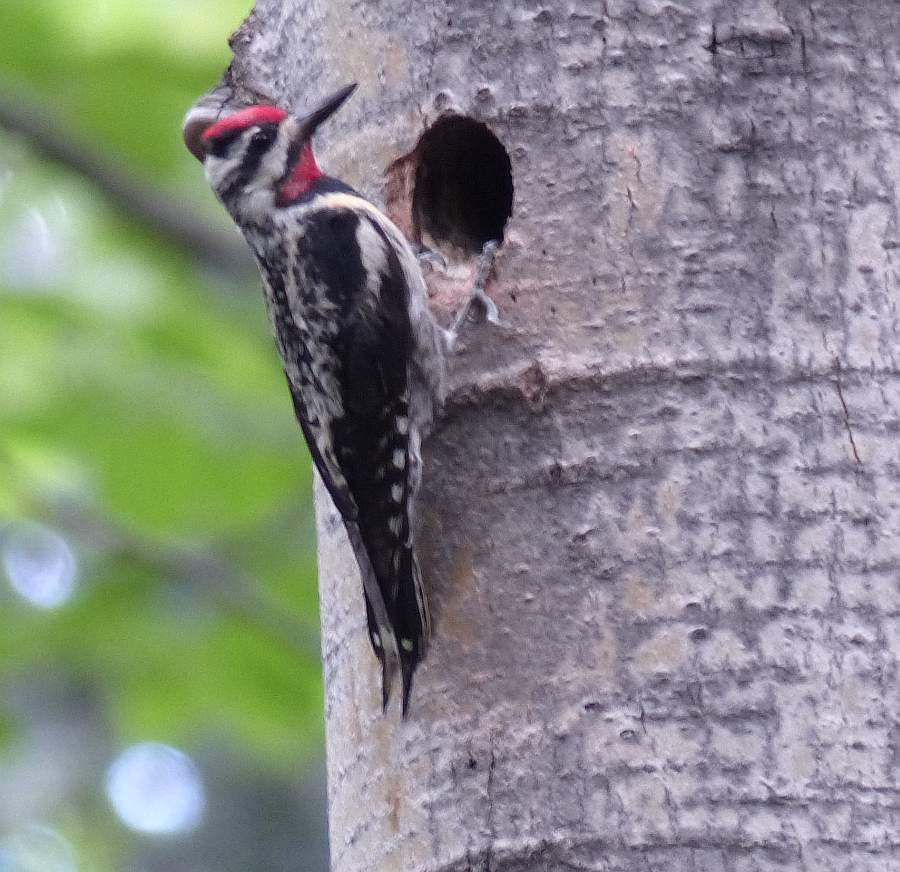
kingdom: Animalia
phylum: Chordata
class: Aves
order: Piciformes
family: Picidae
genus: Sphyrapicus
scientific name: Sphyrapicus varius
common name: Yellow-bellied sapsucker
